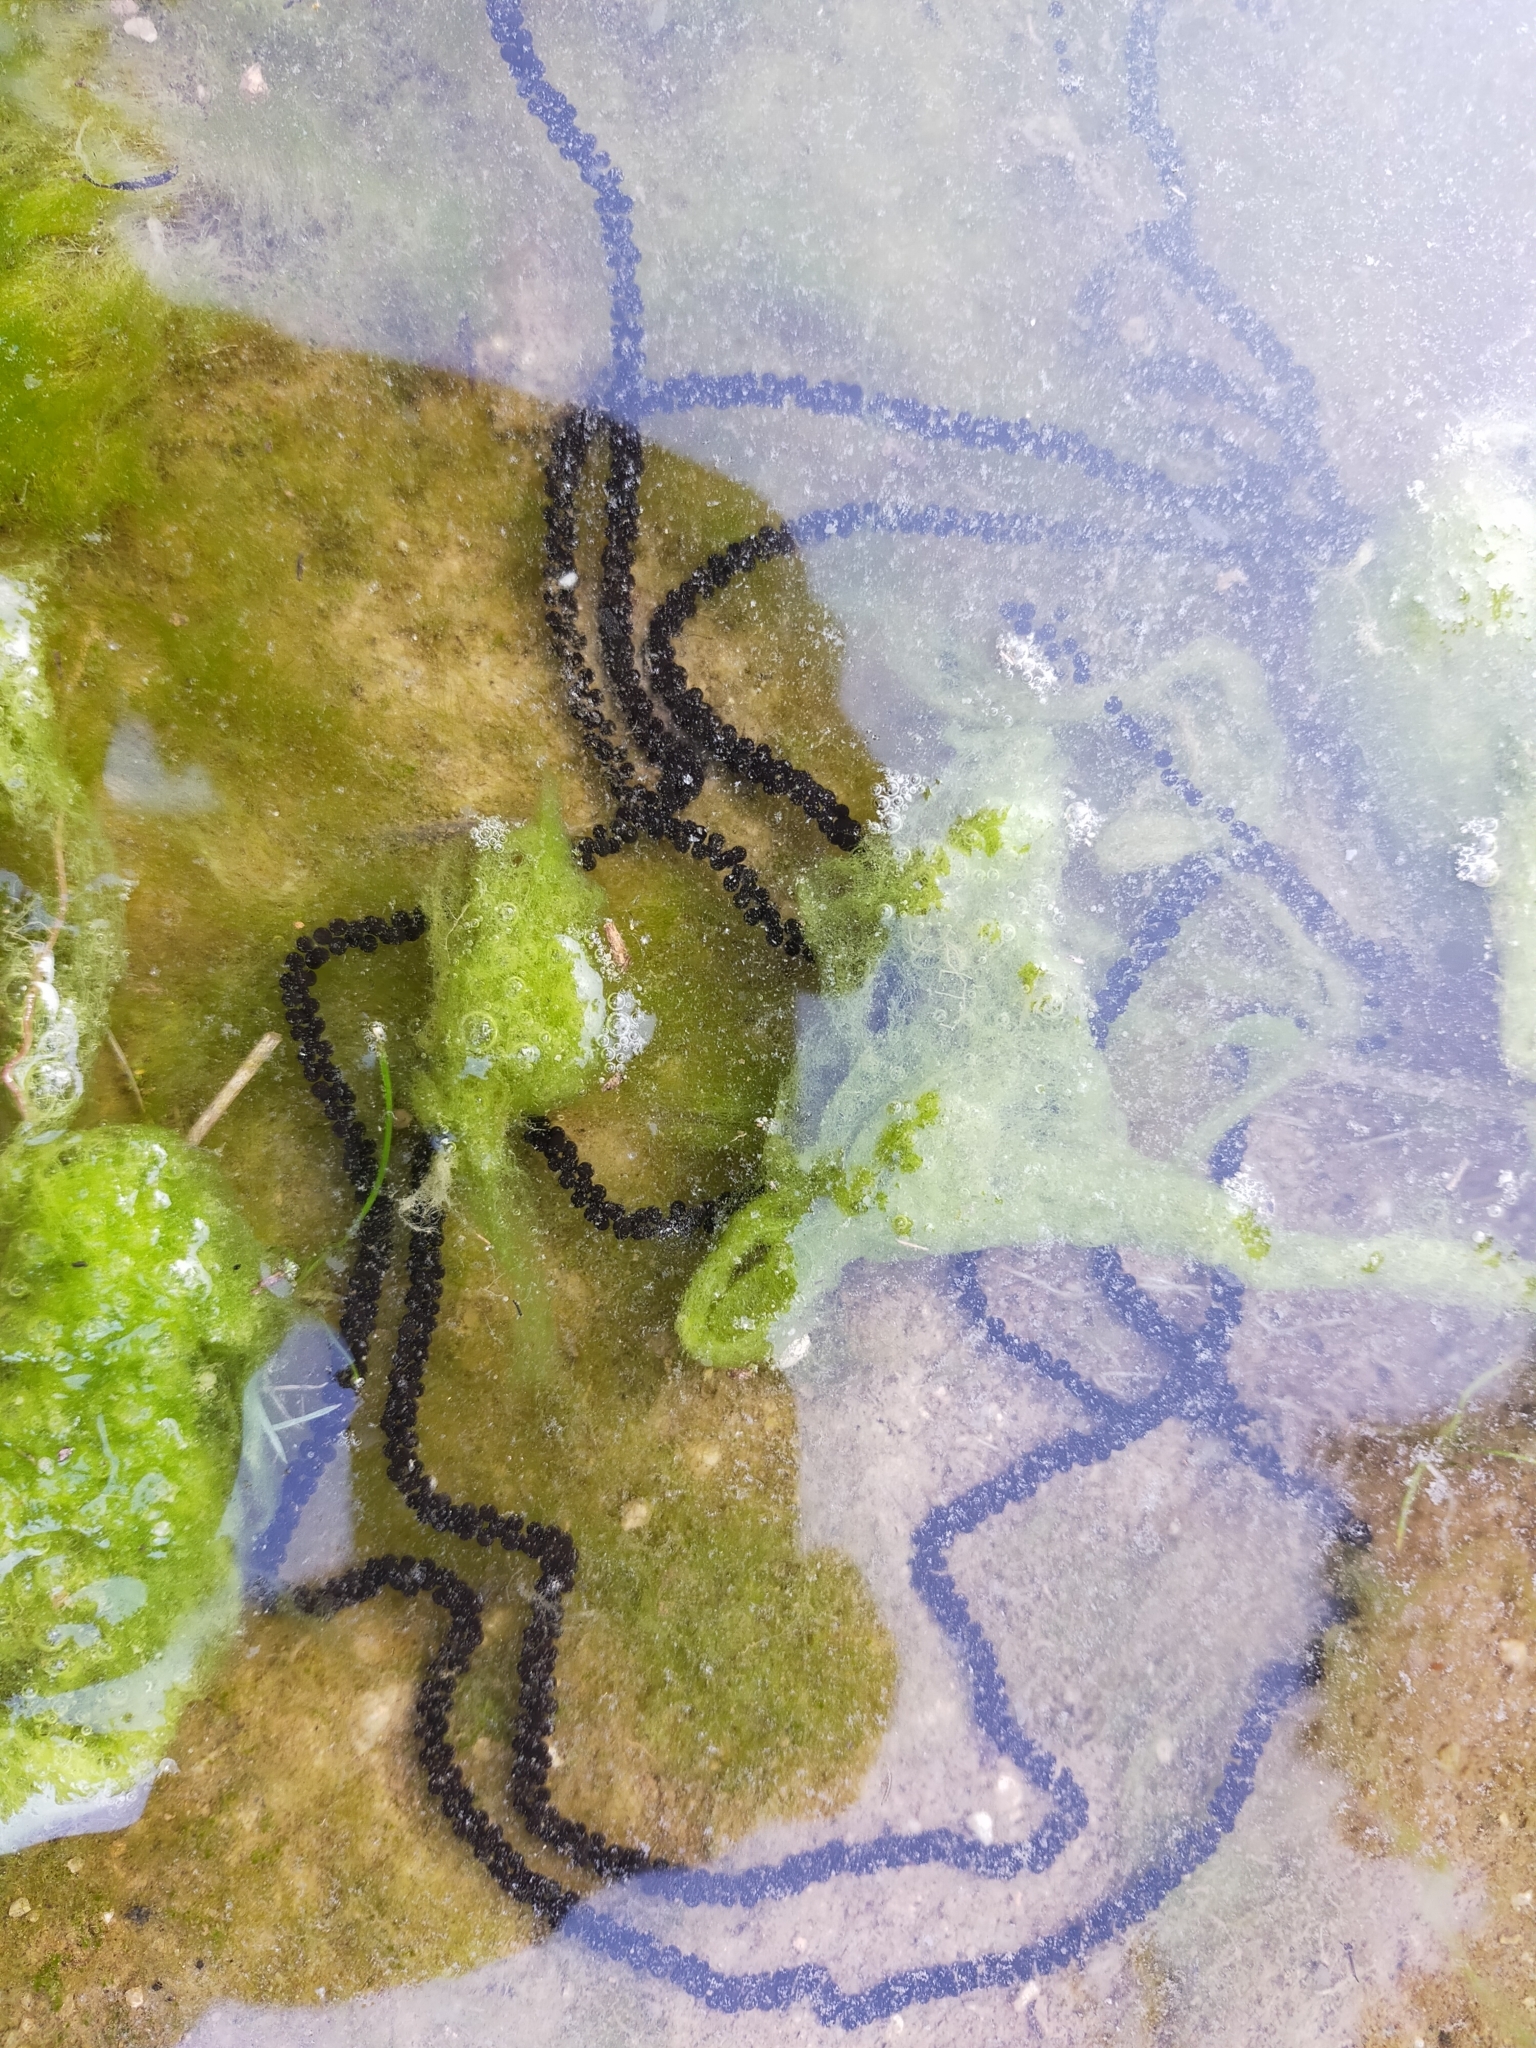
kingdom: Animalia
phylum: Chordata
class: Amphibia
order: Anura
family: Bufonidae
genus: Epidalea
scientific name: Epidalea calamita
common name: Natterjack toad
